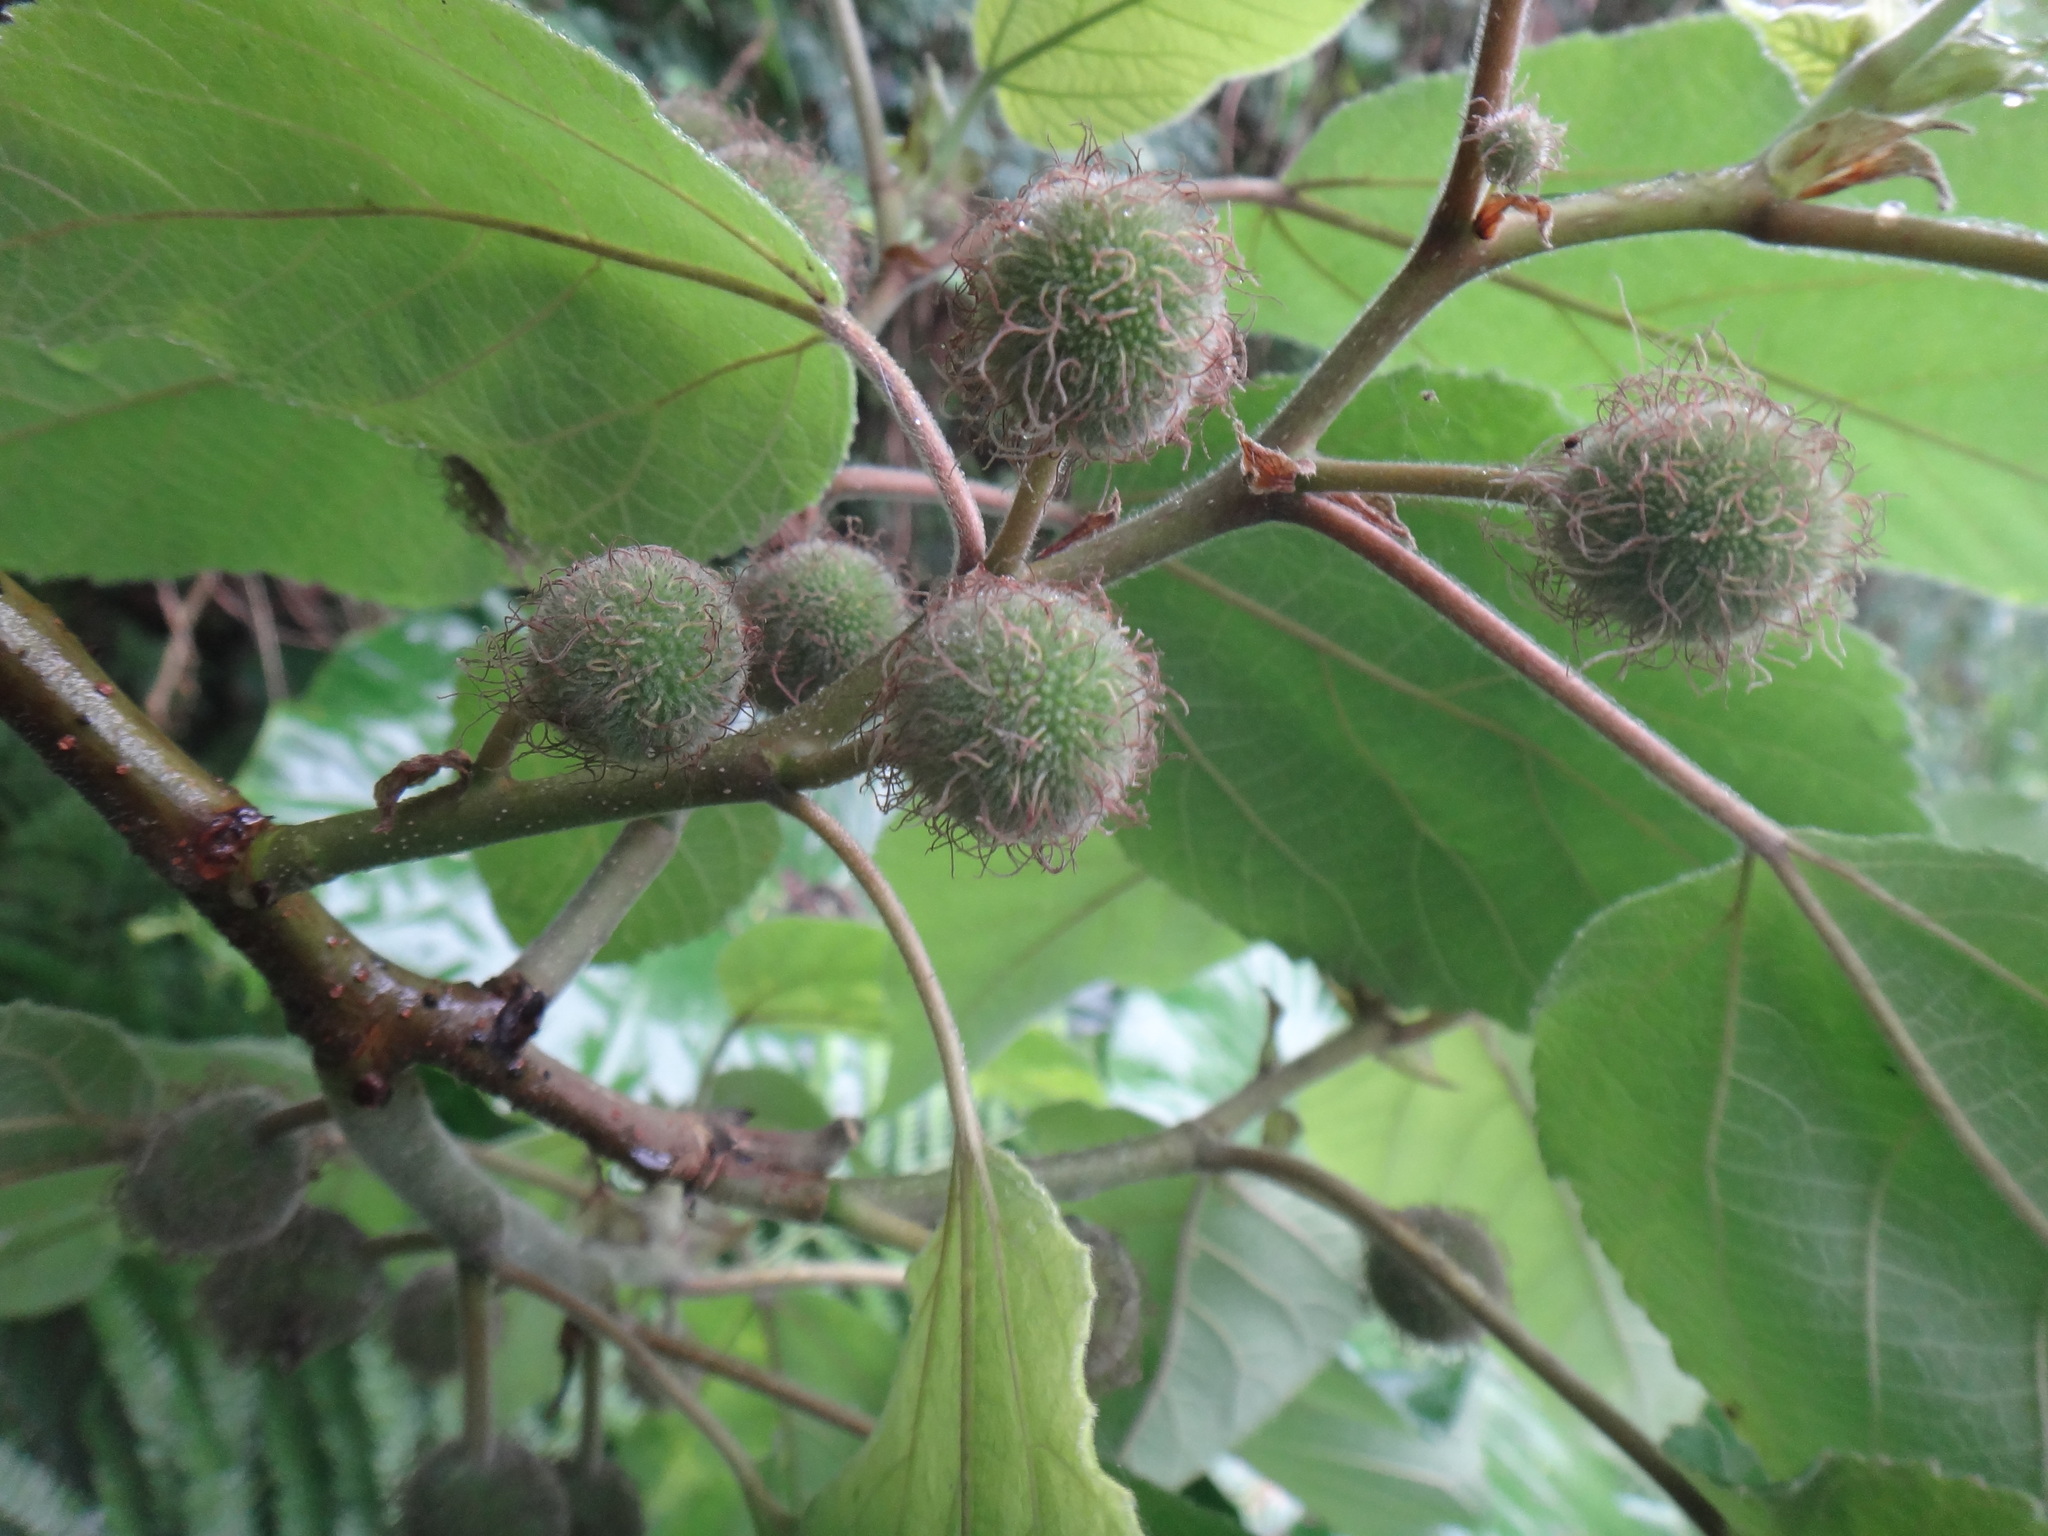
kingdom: Plantae
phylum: Tracheophyta
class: Magnoliopsida
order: Rosales
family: Moraceae
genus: Broussonetia
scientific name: Broussonetia papyrifera
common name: Paper mulberry
